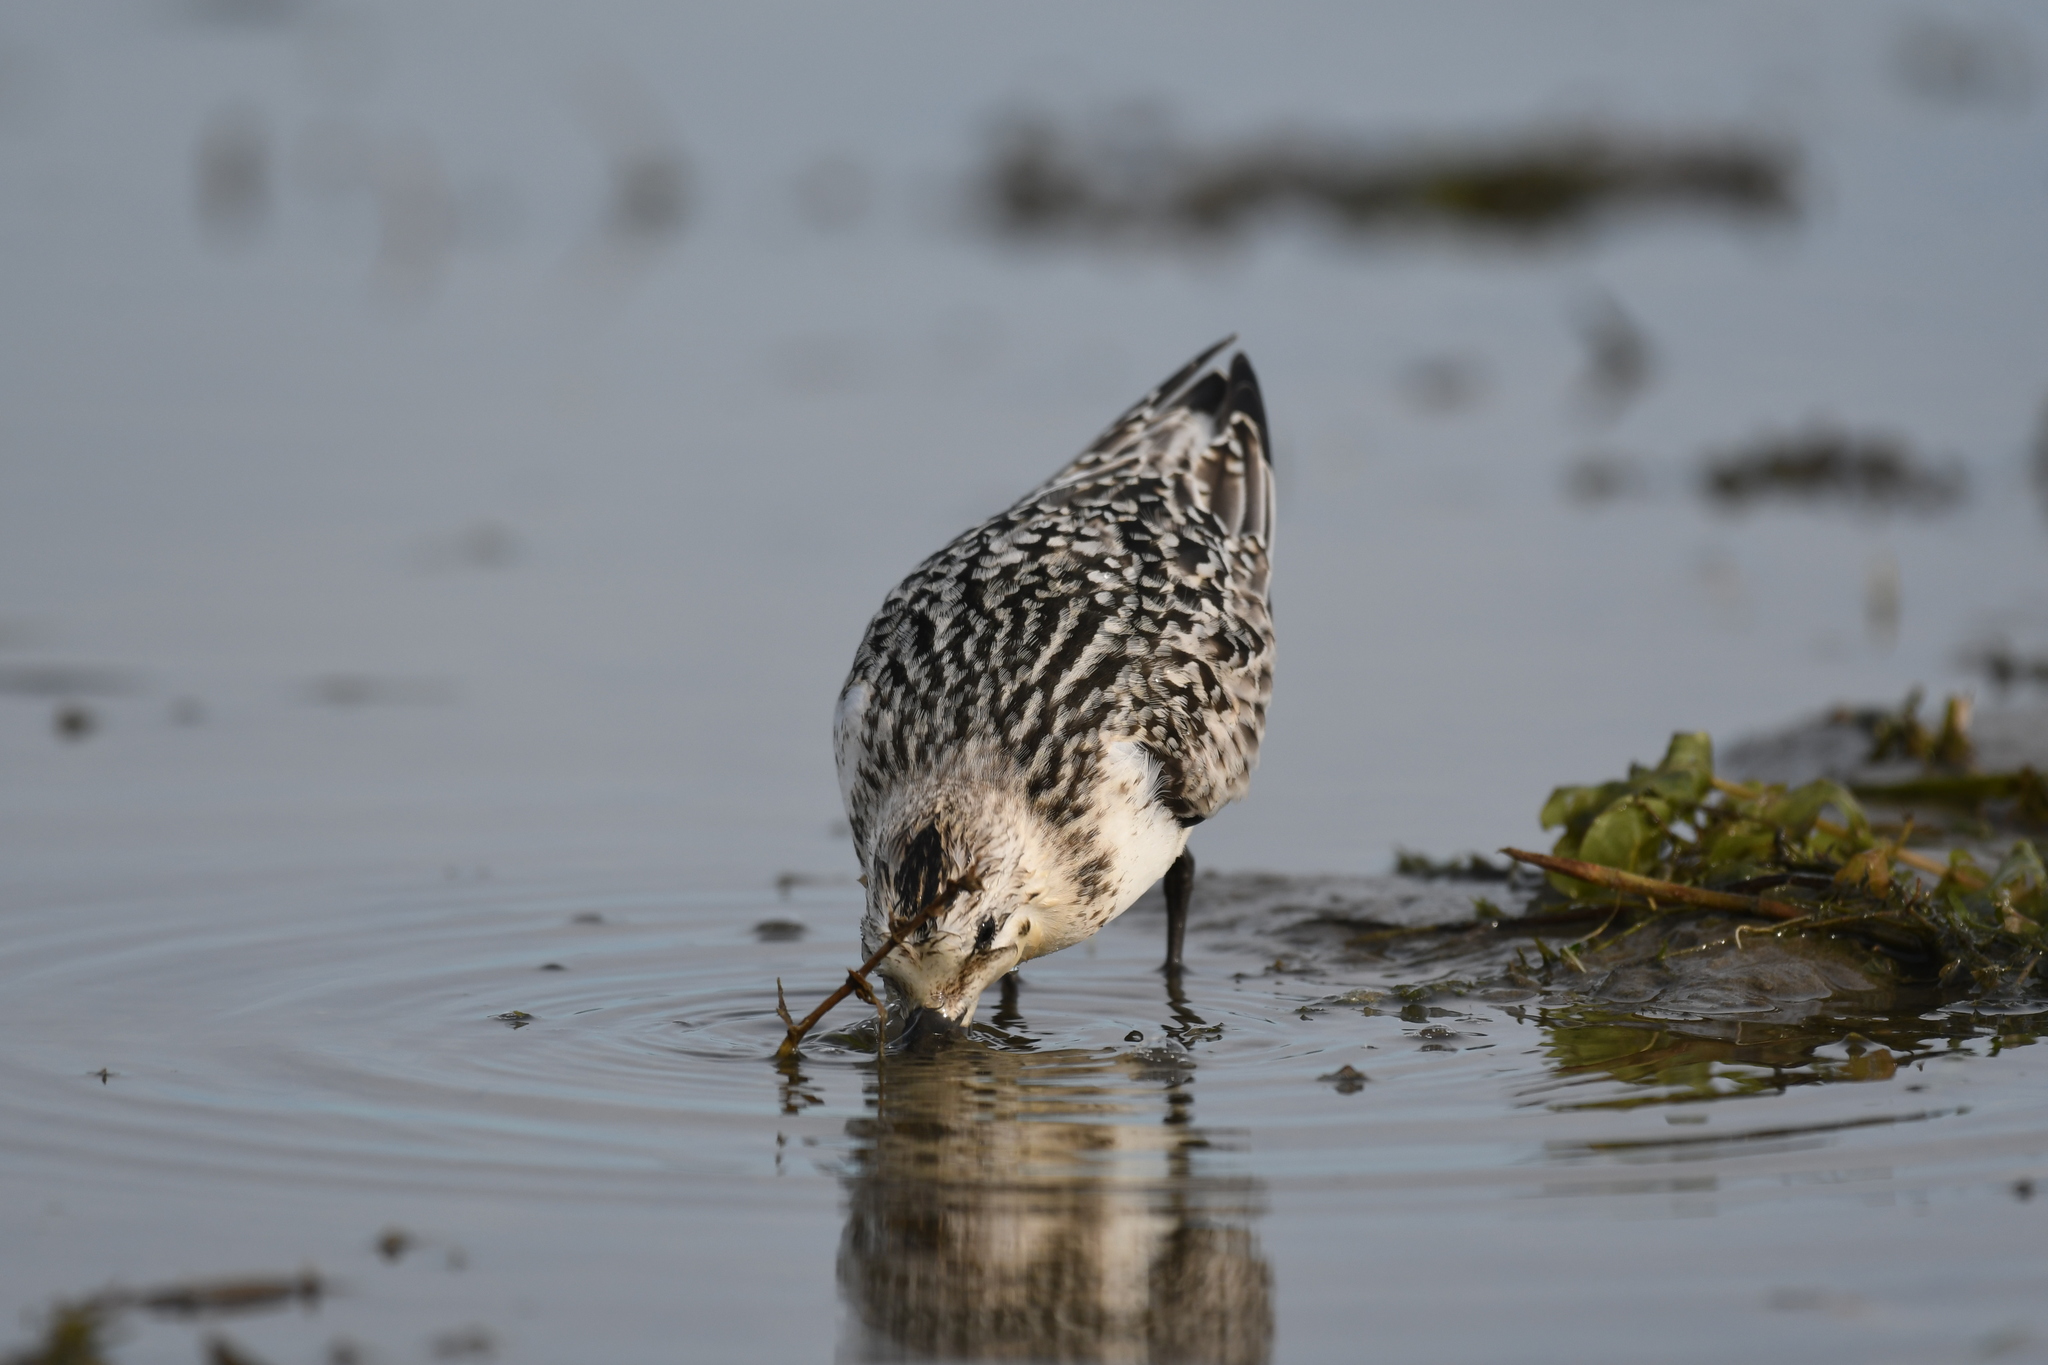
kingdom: Animalia
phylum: Chordata
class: Aves
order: Charadriiformes
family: Scolopacidae
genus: Calidris
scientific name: Calidris alba
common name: Sanderling
